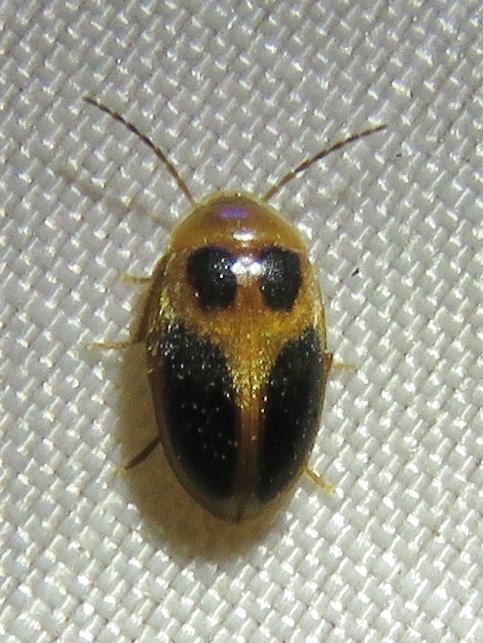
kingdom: Animalia
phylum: Arthropoda
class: Insecta
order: Coleoptera
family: Scirtidae
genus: Sacodes
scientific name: Sacodes pulchella
